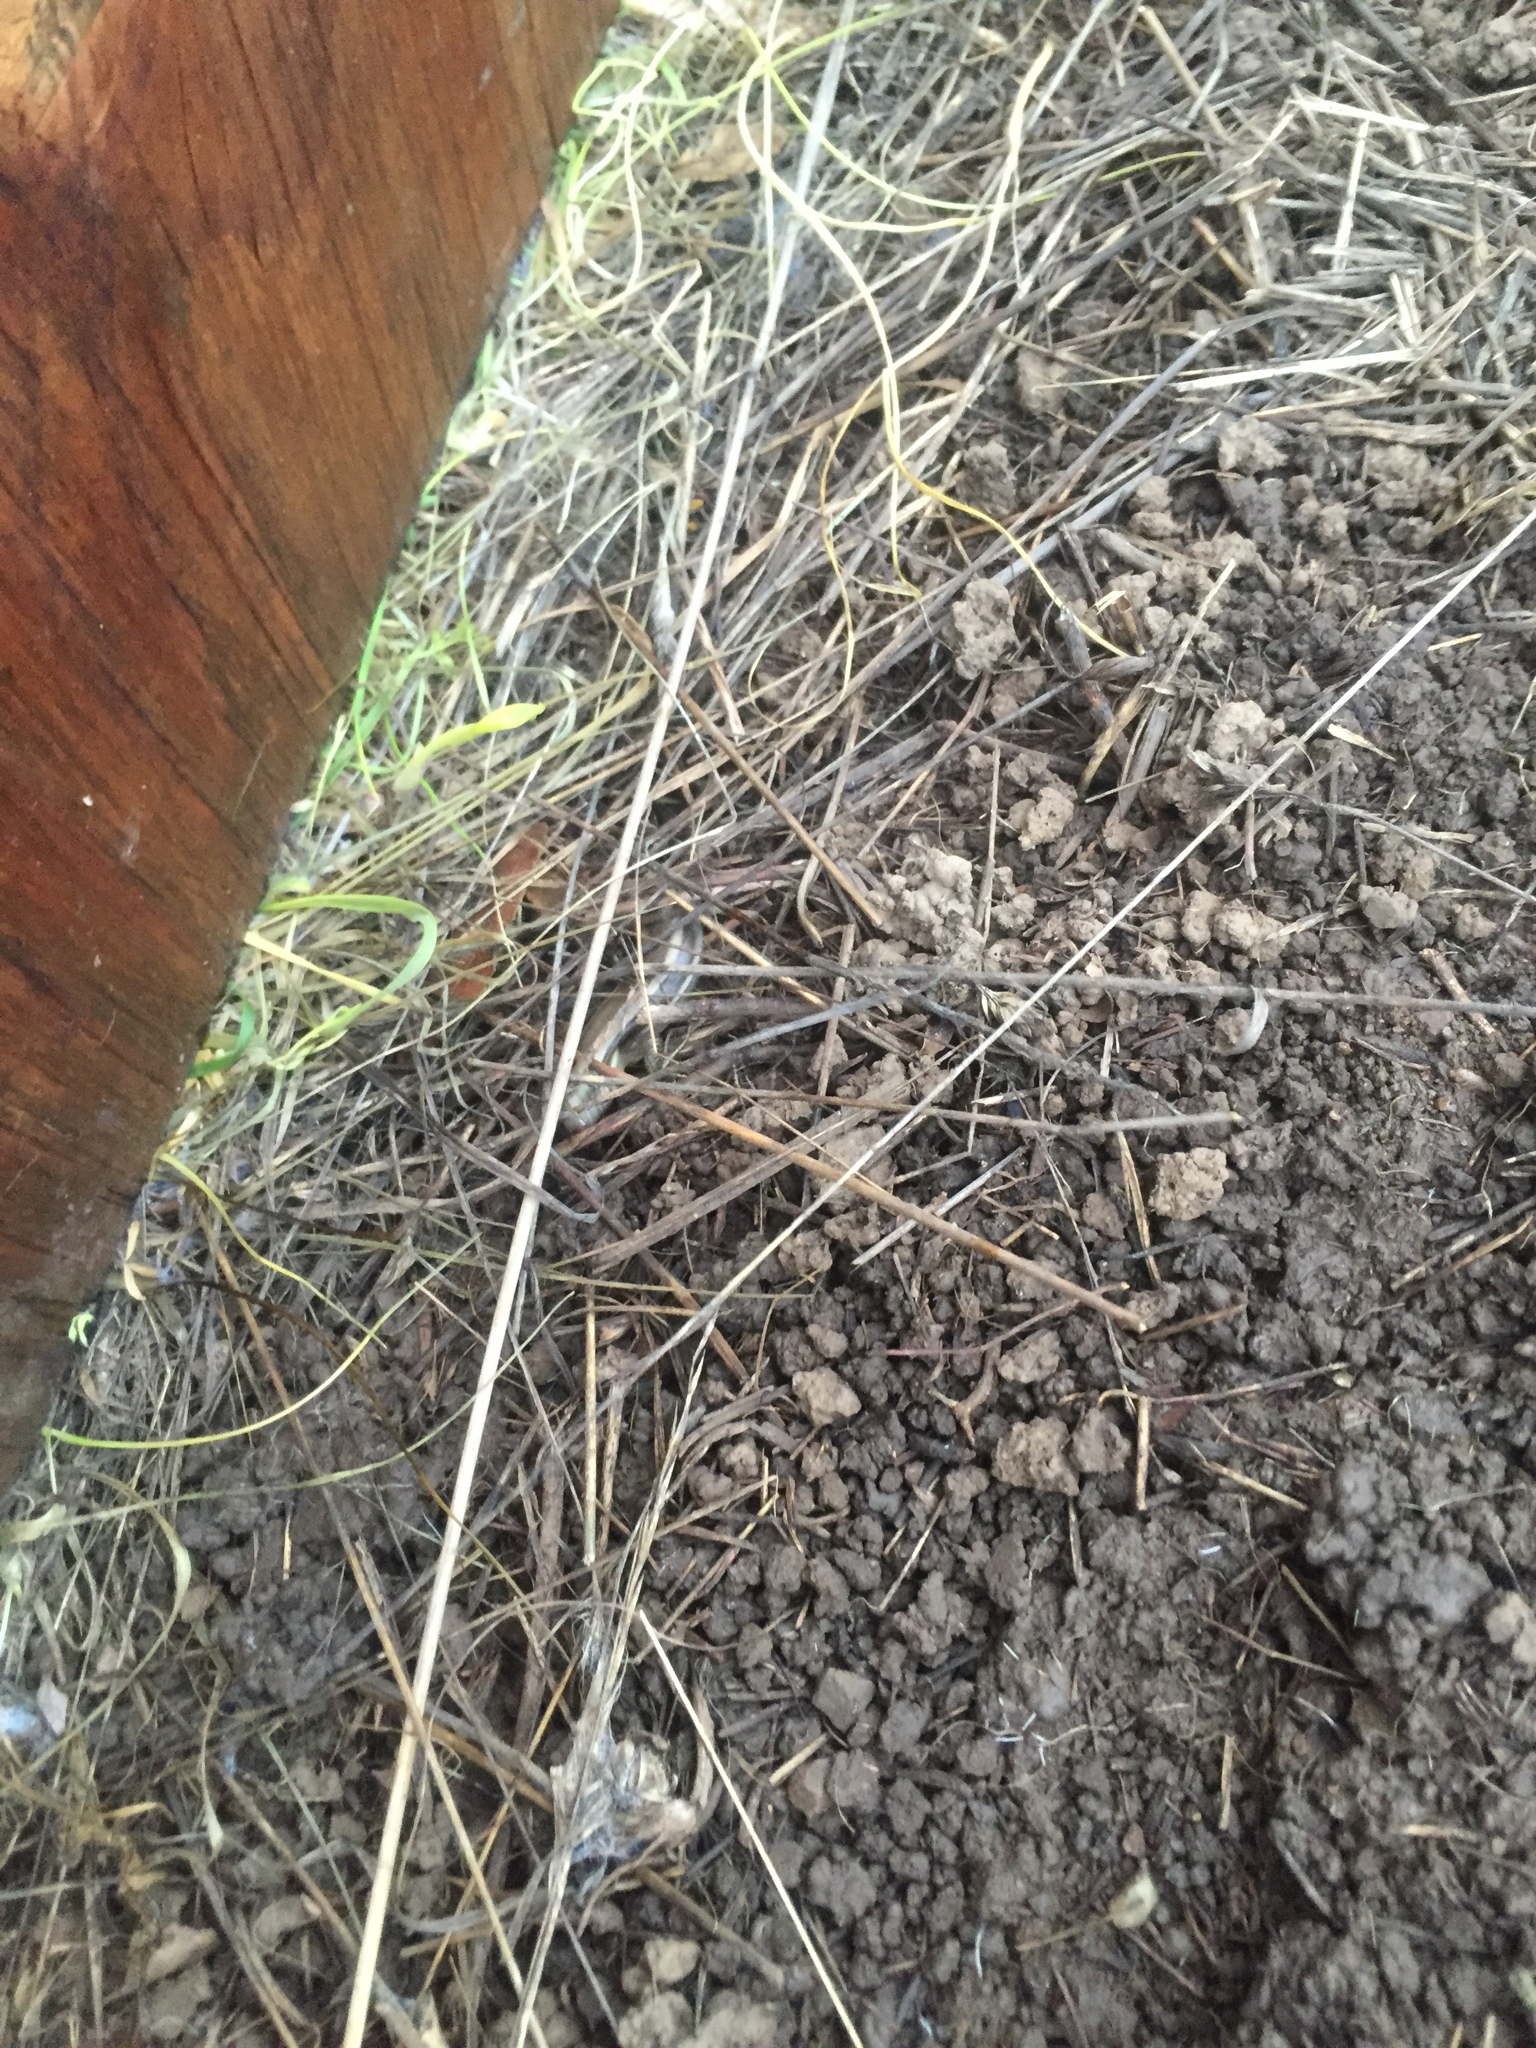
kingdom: Animalia
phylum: Chordata
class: Squamata
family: Scincidae
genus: Plestiodon
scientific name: Plestiodon skiltonianus
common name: Coronado island skink [interparietalis]
